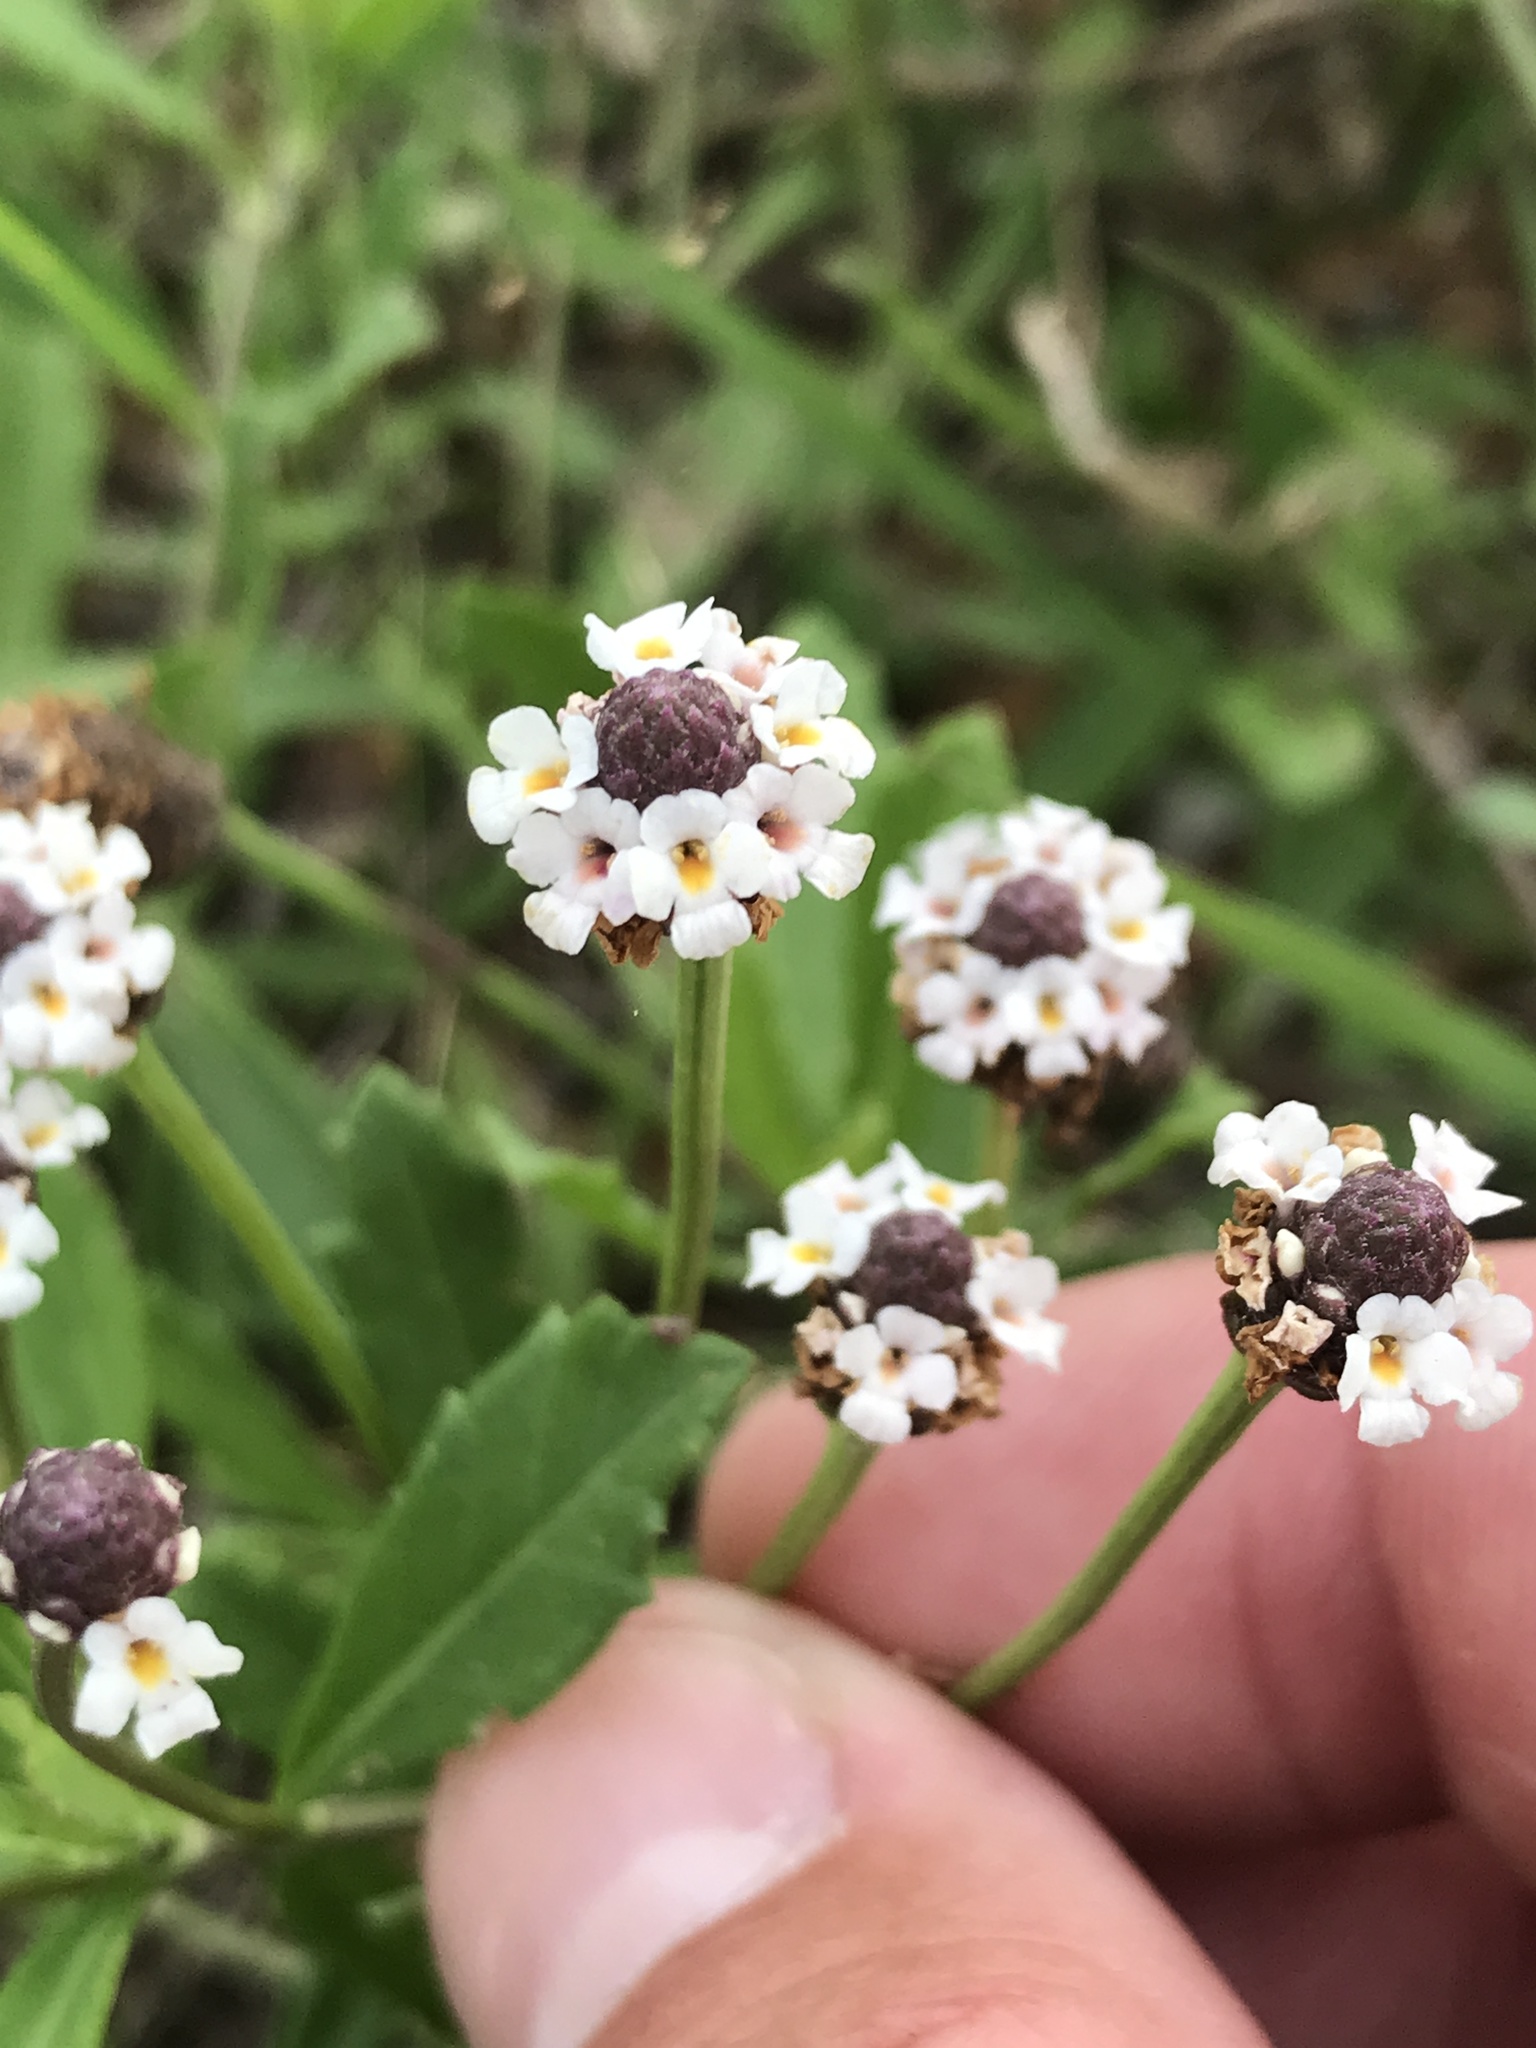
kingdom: Plantae
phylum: Tracheophyta
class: Magnoliopsida
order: Lamiales
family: Verbenaceae
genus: Phyla
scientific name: Phyla nodiflora
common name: Frogfruit
